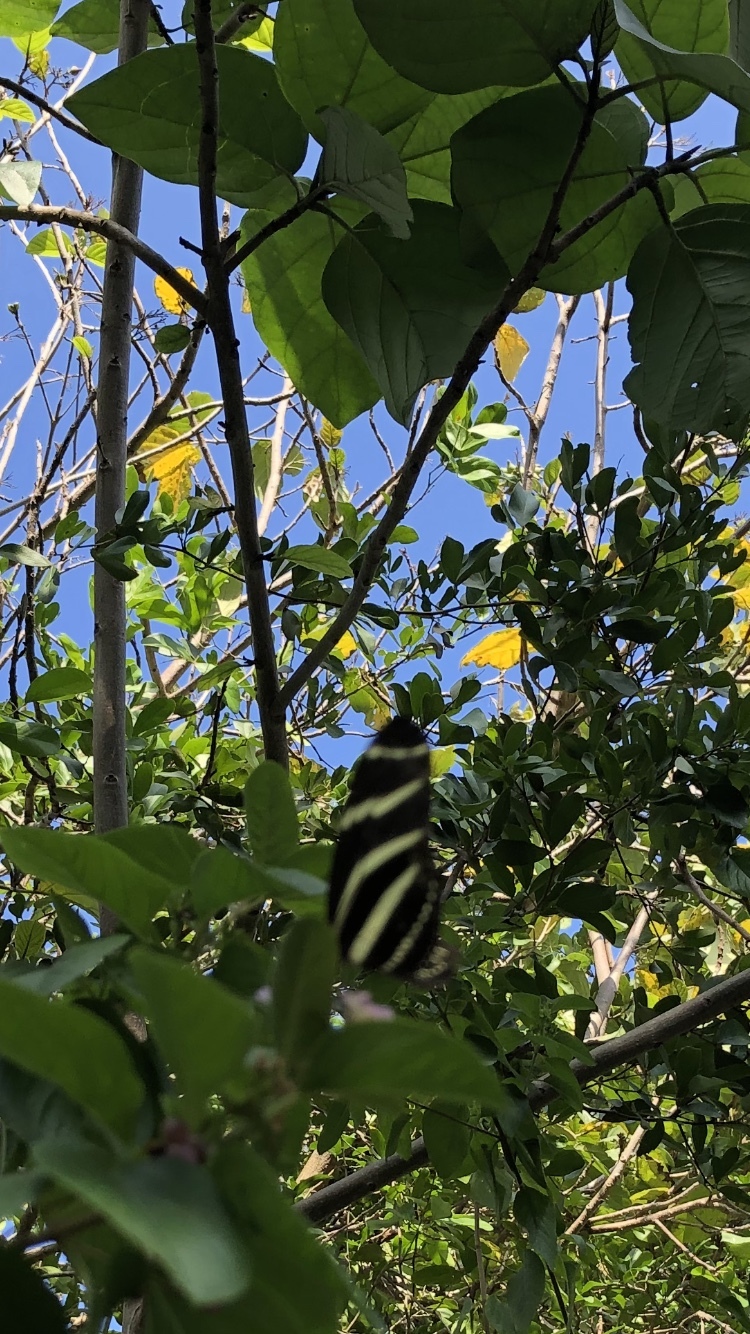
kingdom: Animalia
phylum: Arthropoda
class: Insecta
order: Lepidoptera
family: Nymphalidae
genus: Heliconius
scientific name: Heliconius charithonia
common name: Zebra long wing
